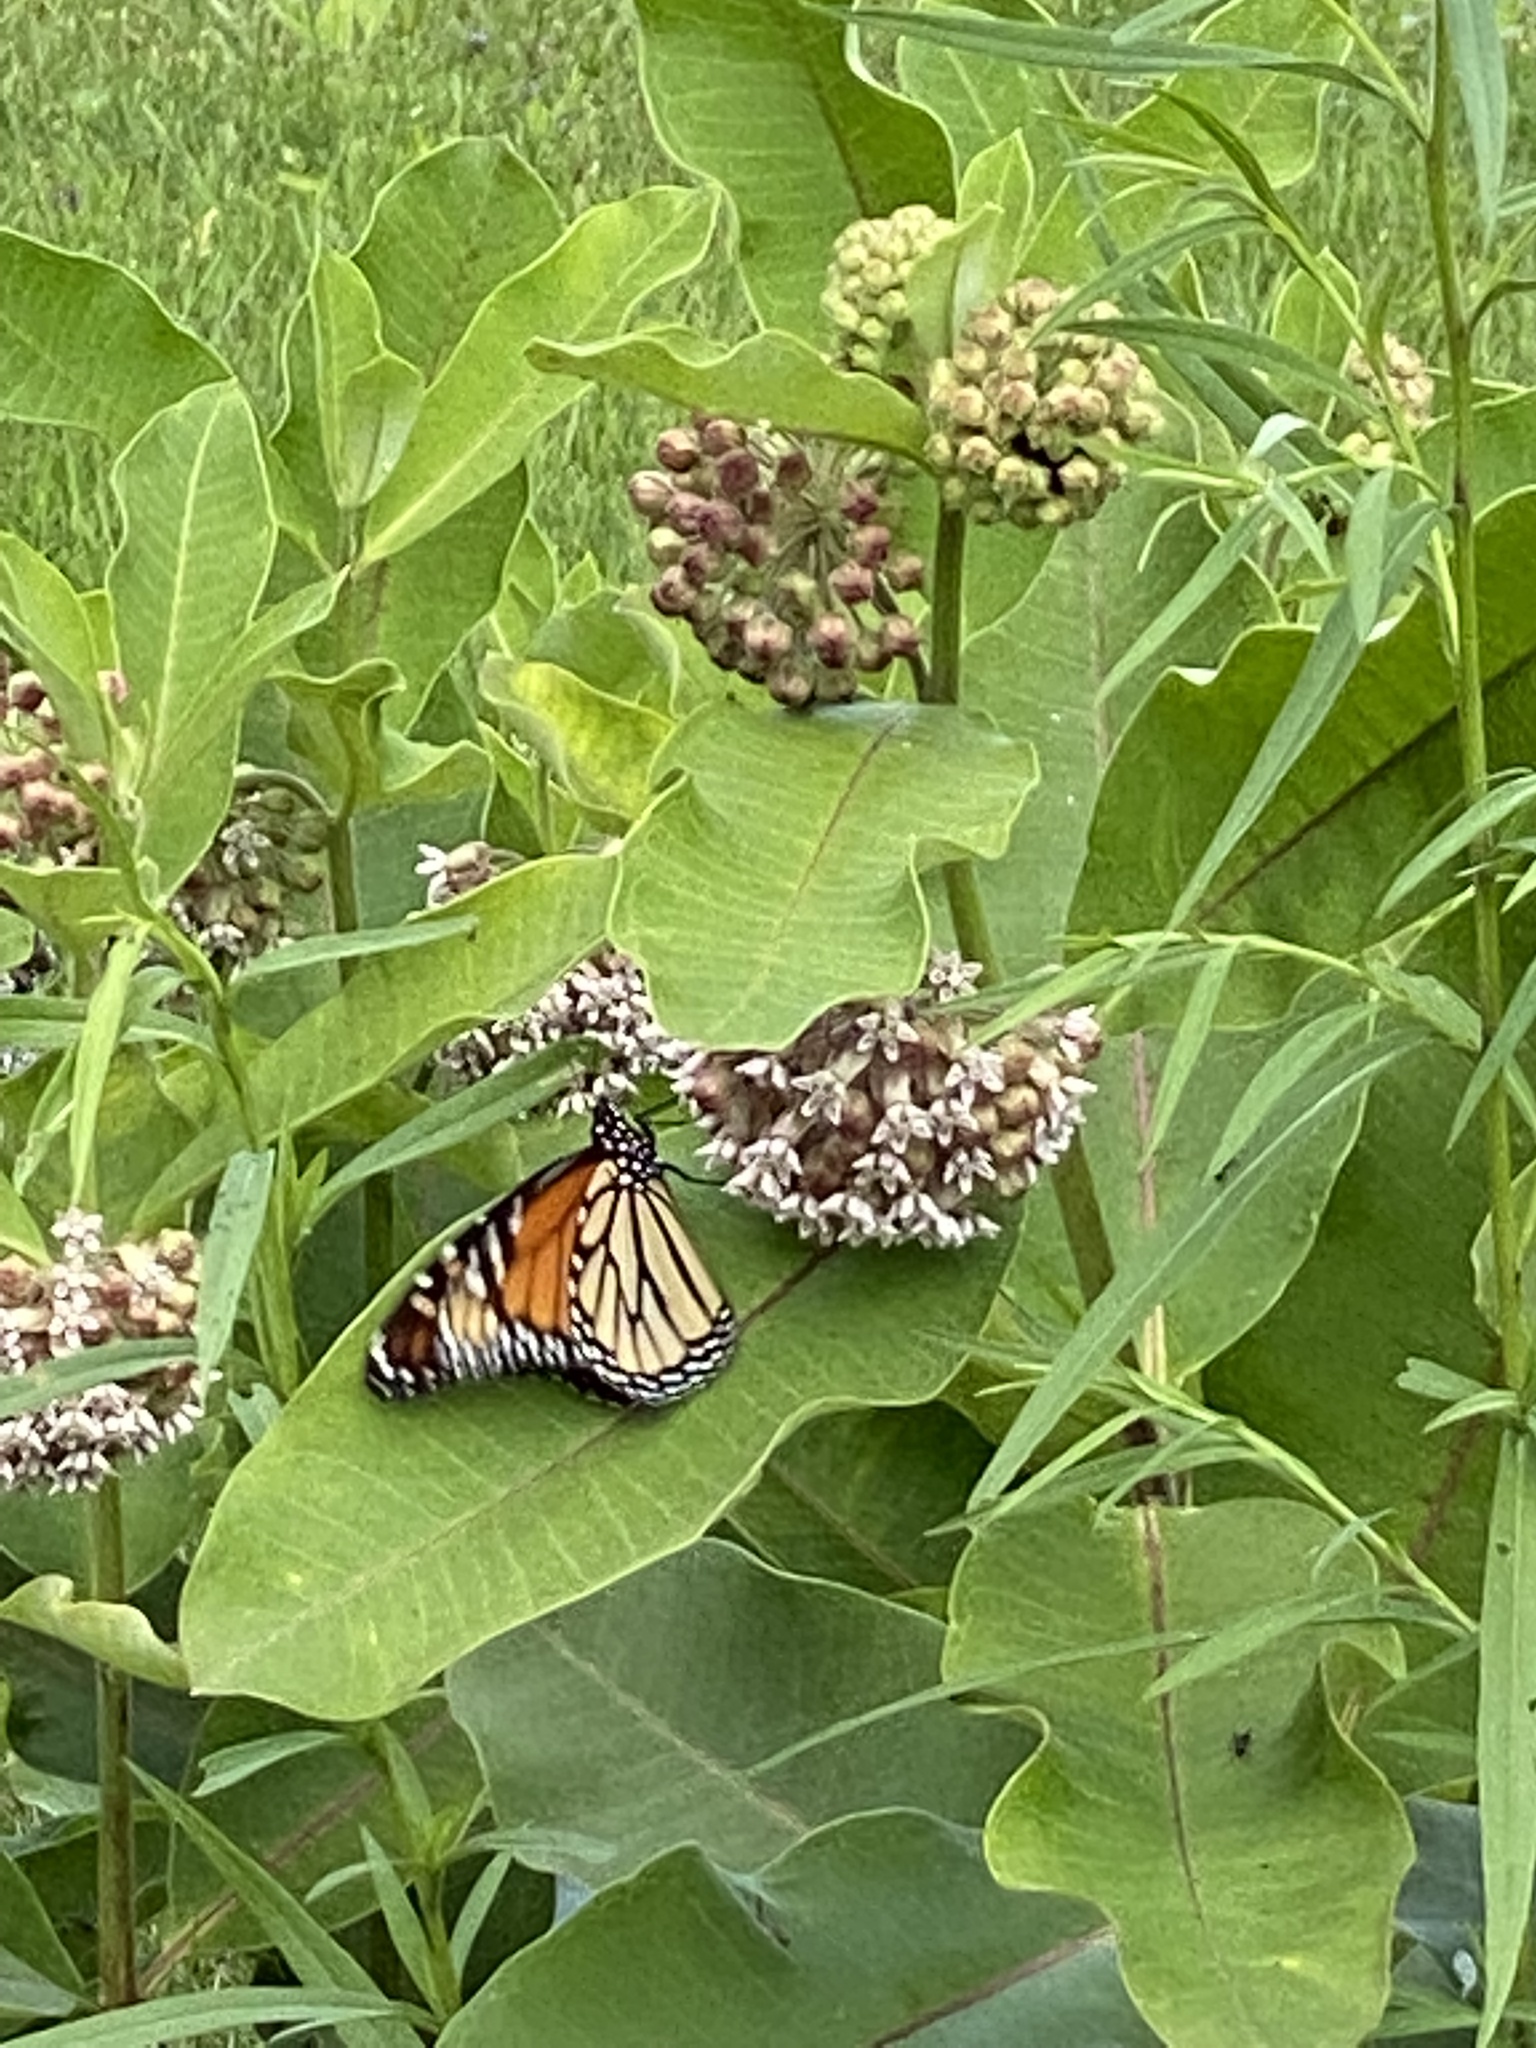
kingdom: Animalia
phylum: Arthropoda
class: Insecta
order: Lepidoptera
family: Nymphalidae
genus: Danaus
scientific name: Danaus plexippus
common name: Monarch
